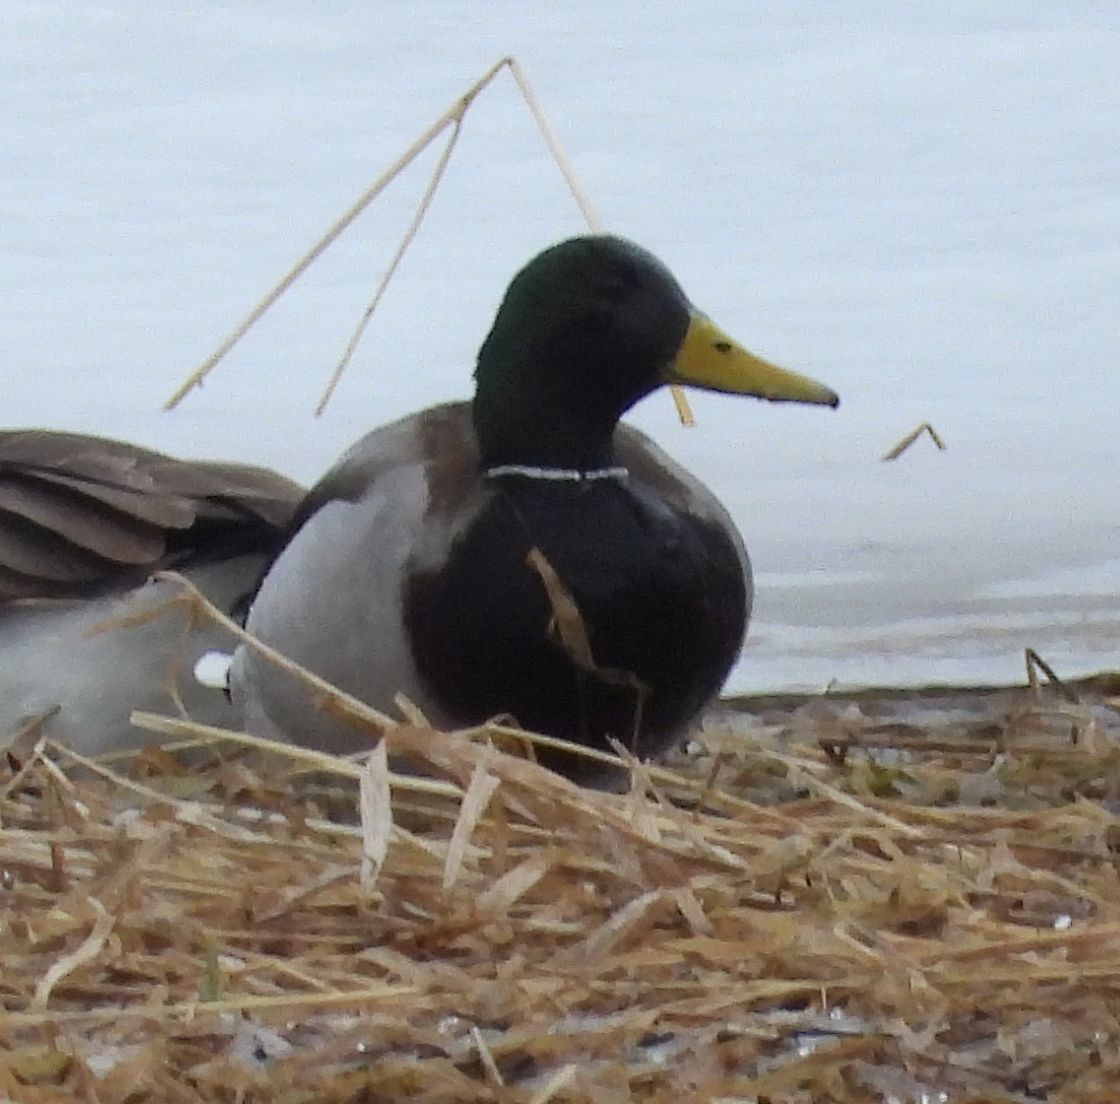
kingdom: Animalia
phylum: Chordata
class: Aves
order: Anseriformes
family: Anatidae
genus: Anas
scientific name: Anas platyrhynchos
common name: Mallard
